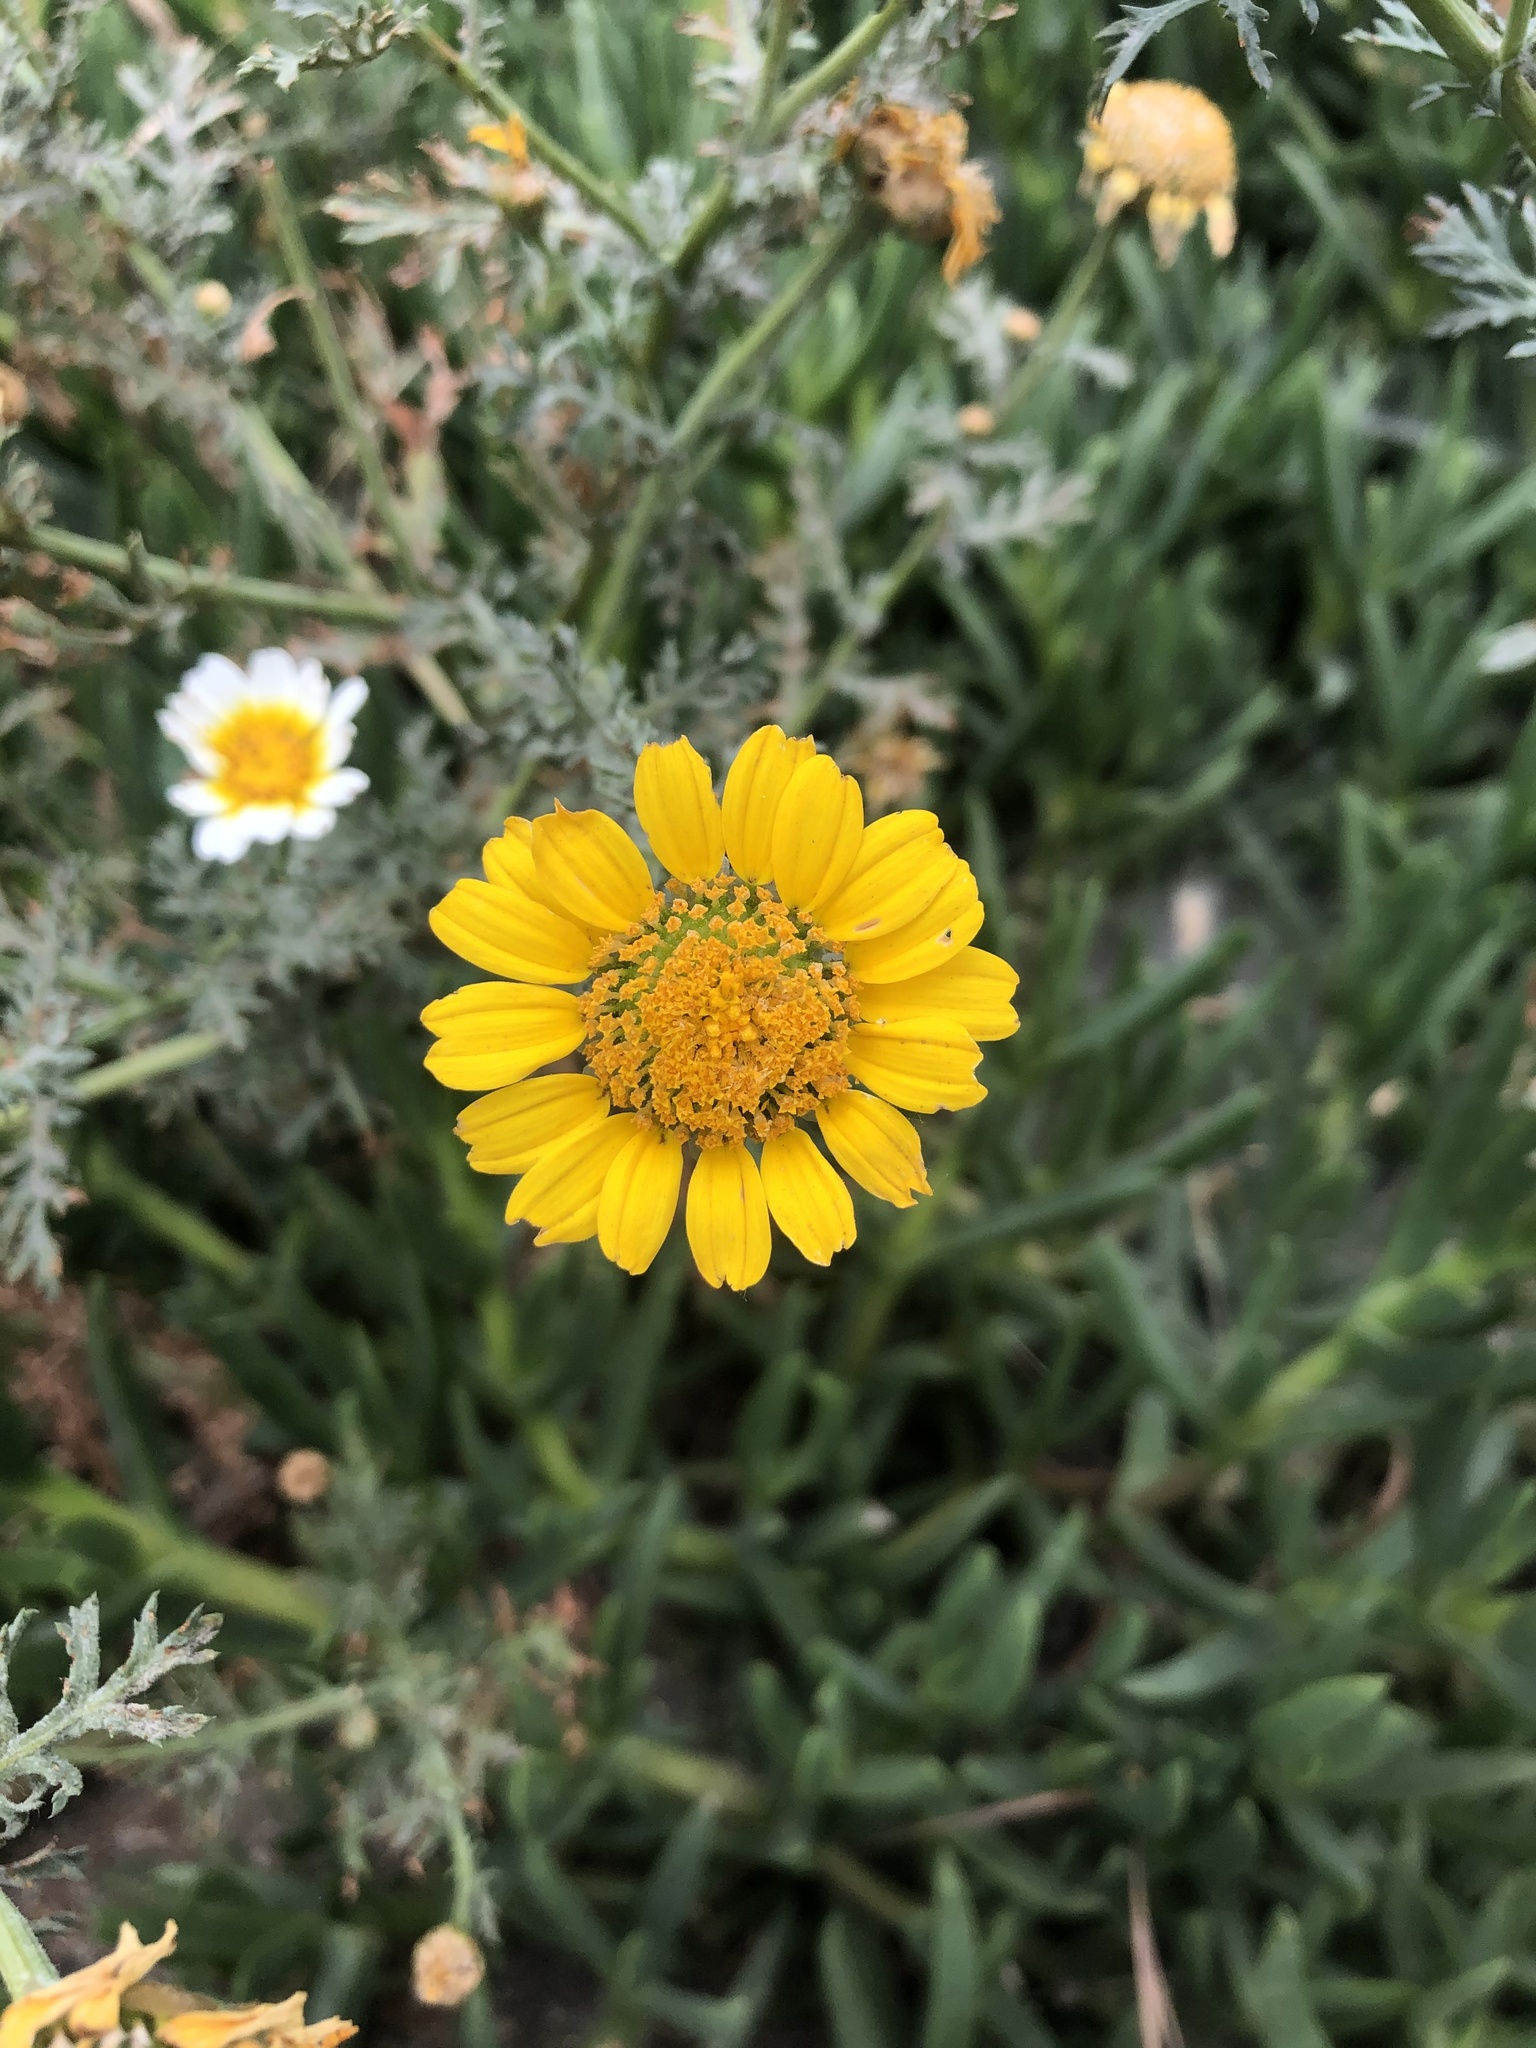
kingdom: Plantae
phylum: Tracheophyta
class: Magnoliopsida
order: Asterales
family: Asteraceae
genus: Glebionis
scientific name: Glebionis coronaria
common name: Crowndaisy
